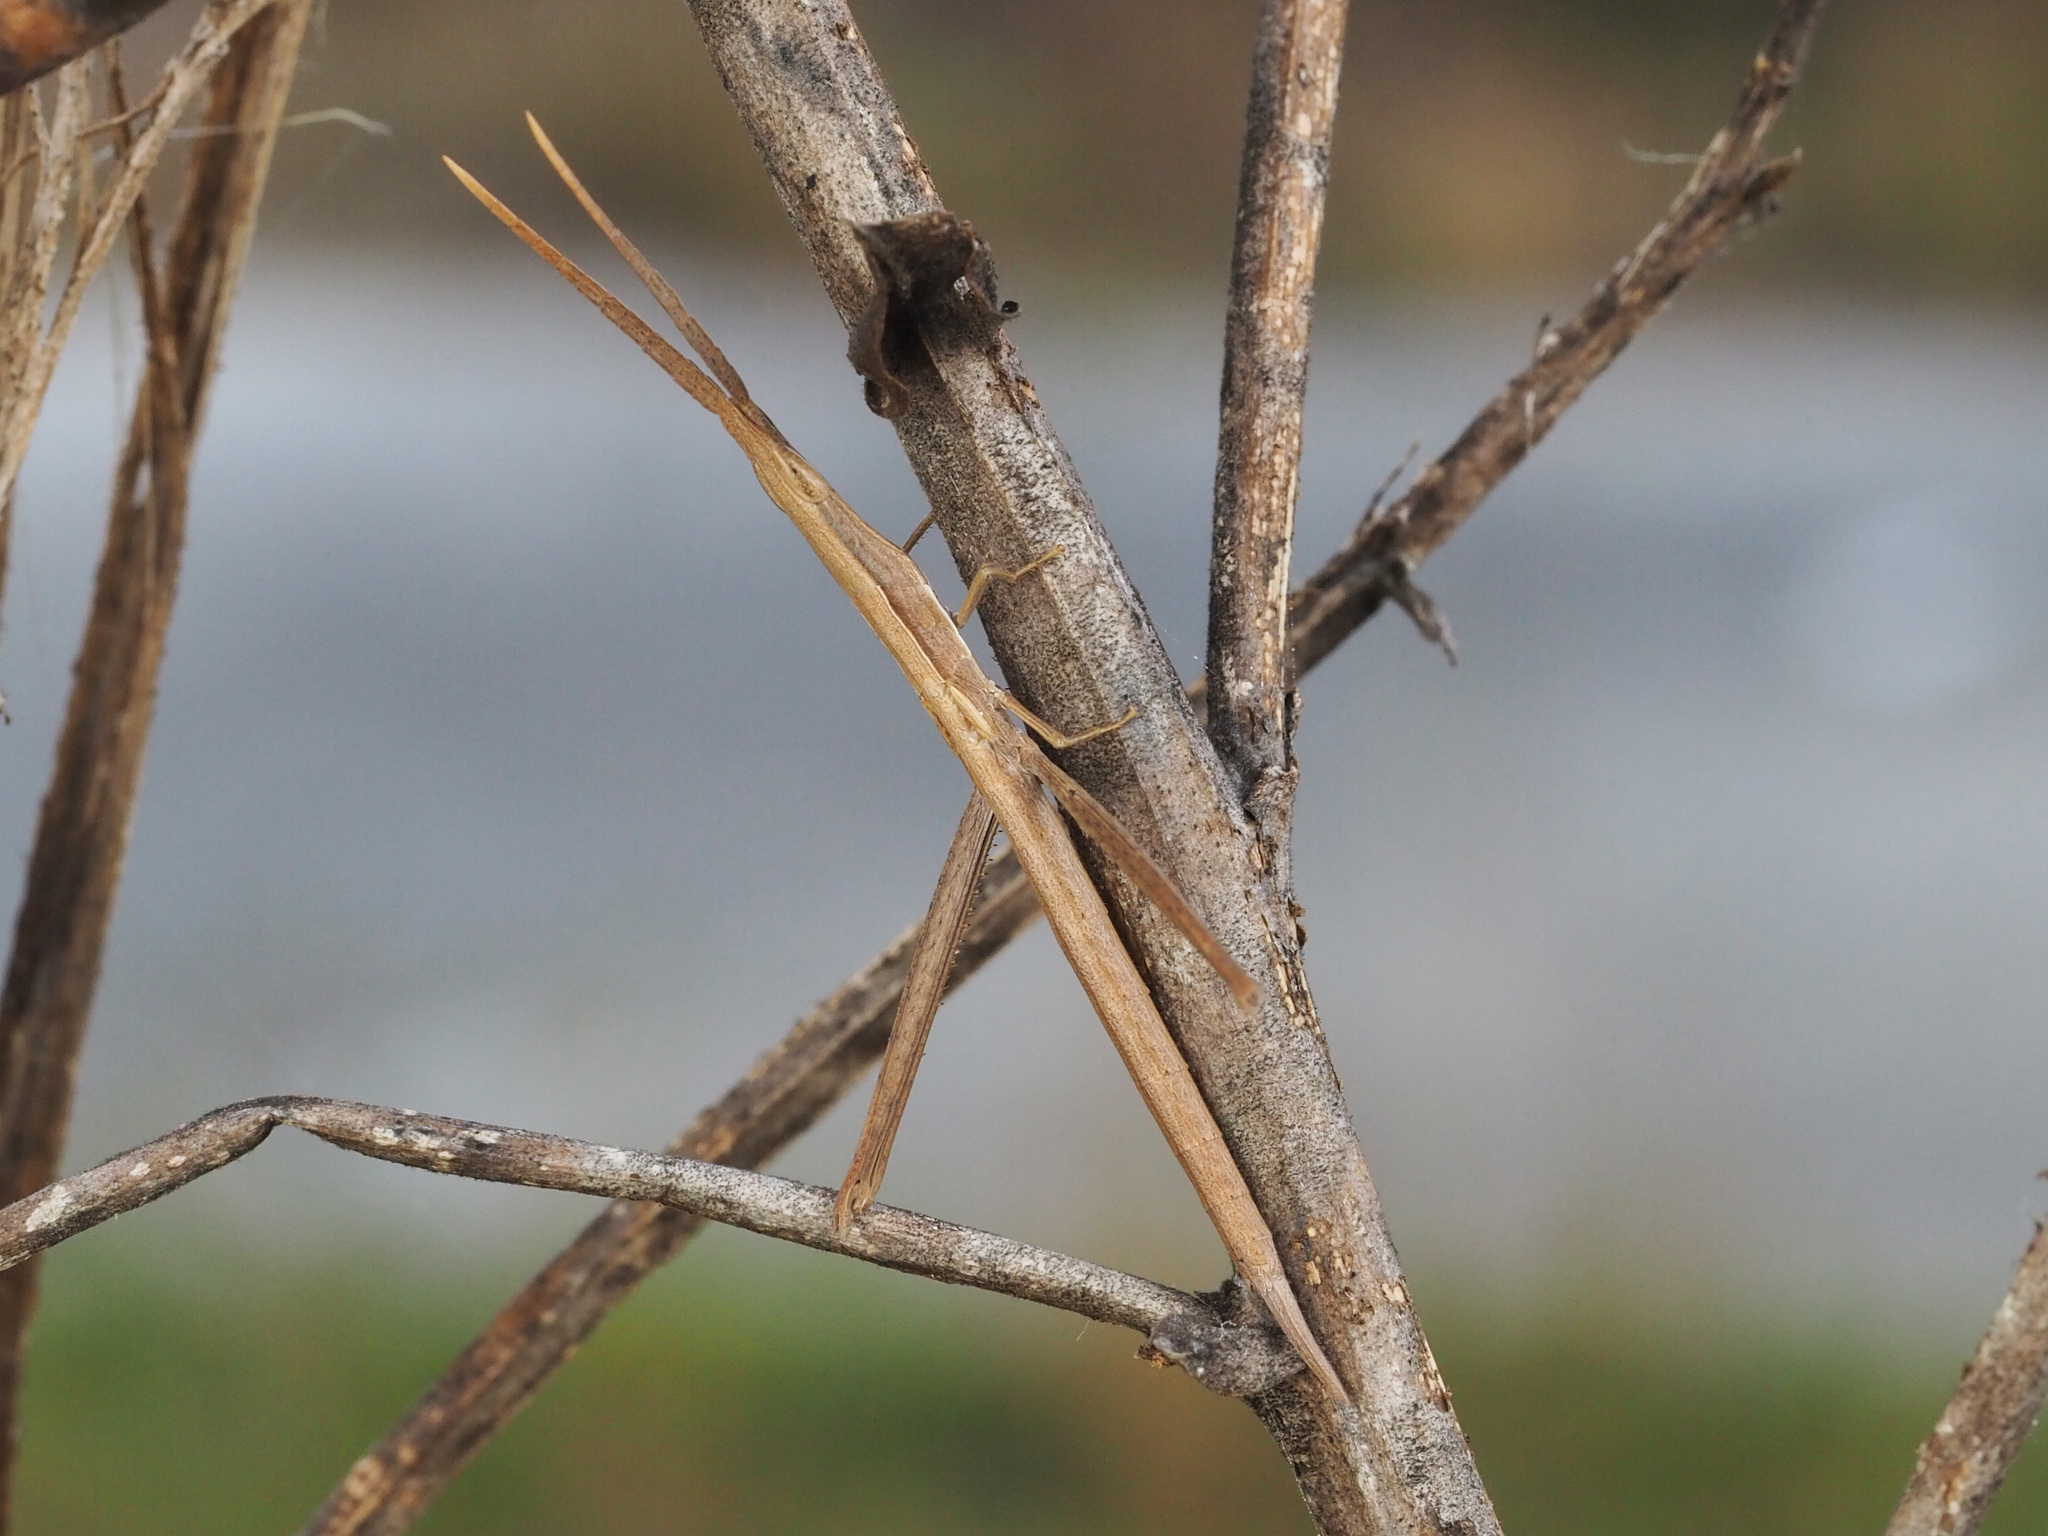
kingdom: Animalia
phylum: Arthropoda
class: Insecta
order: Orthoptera
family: Acrididae
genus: Achurum
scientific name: Achurum carinatum
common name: Long-headed toothpick grasshopper
